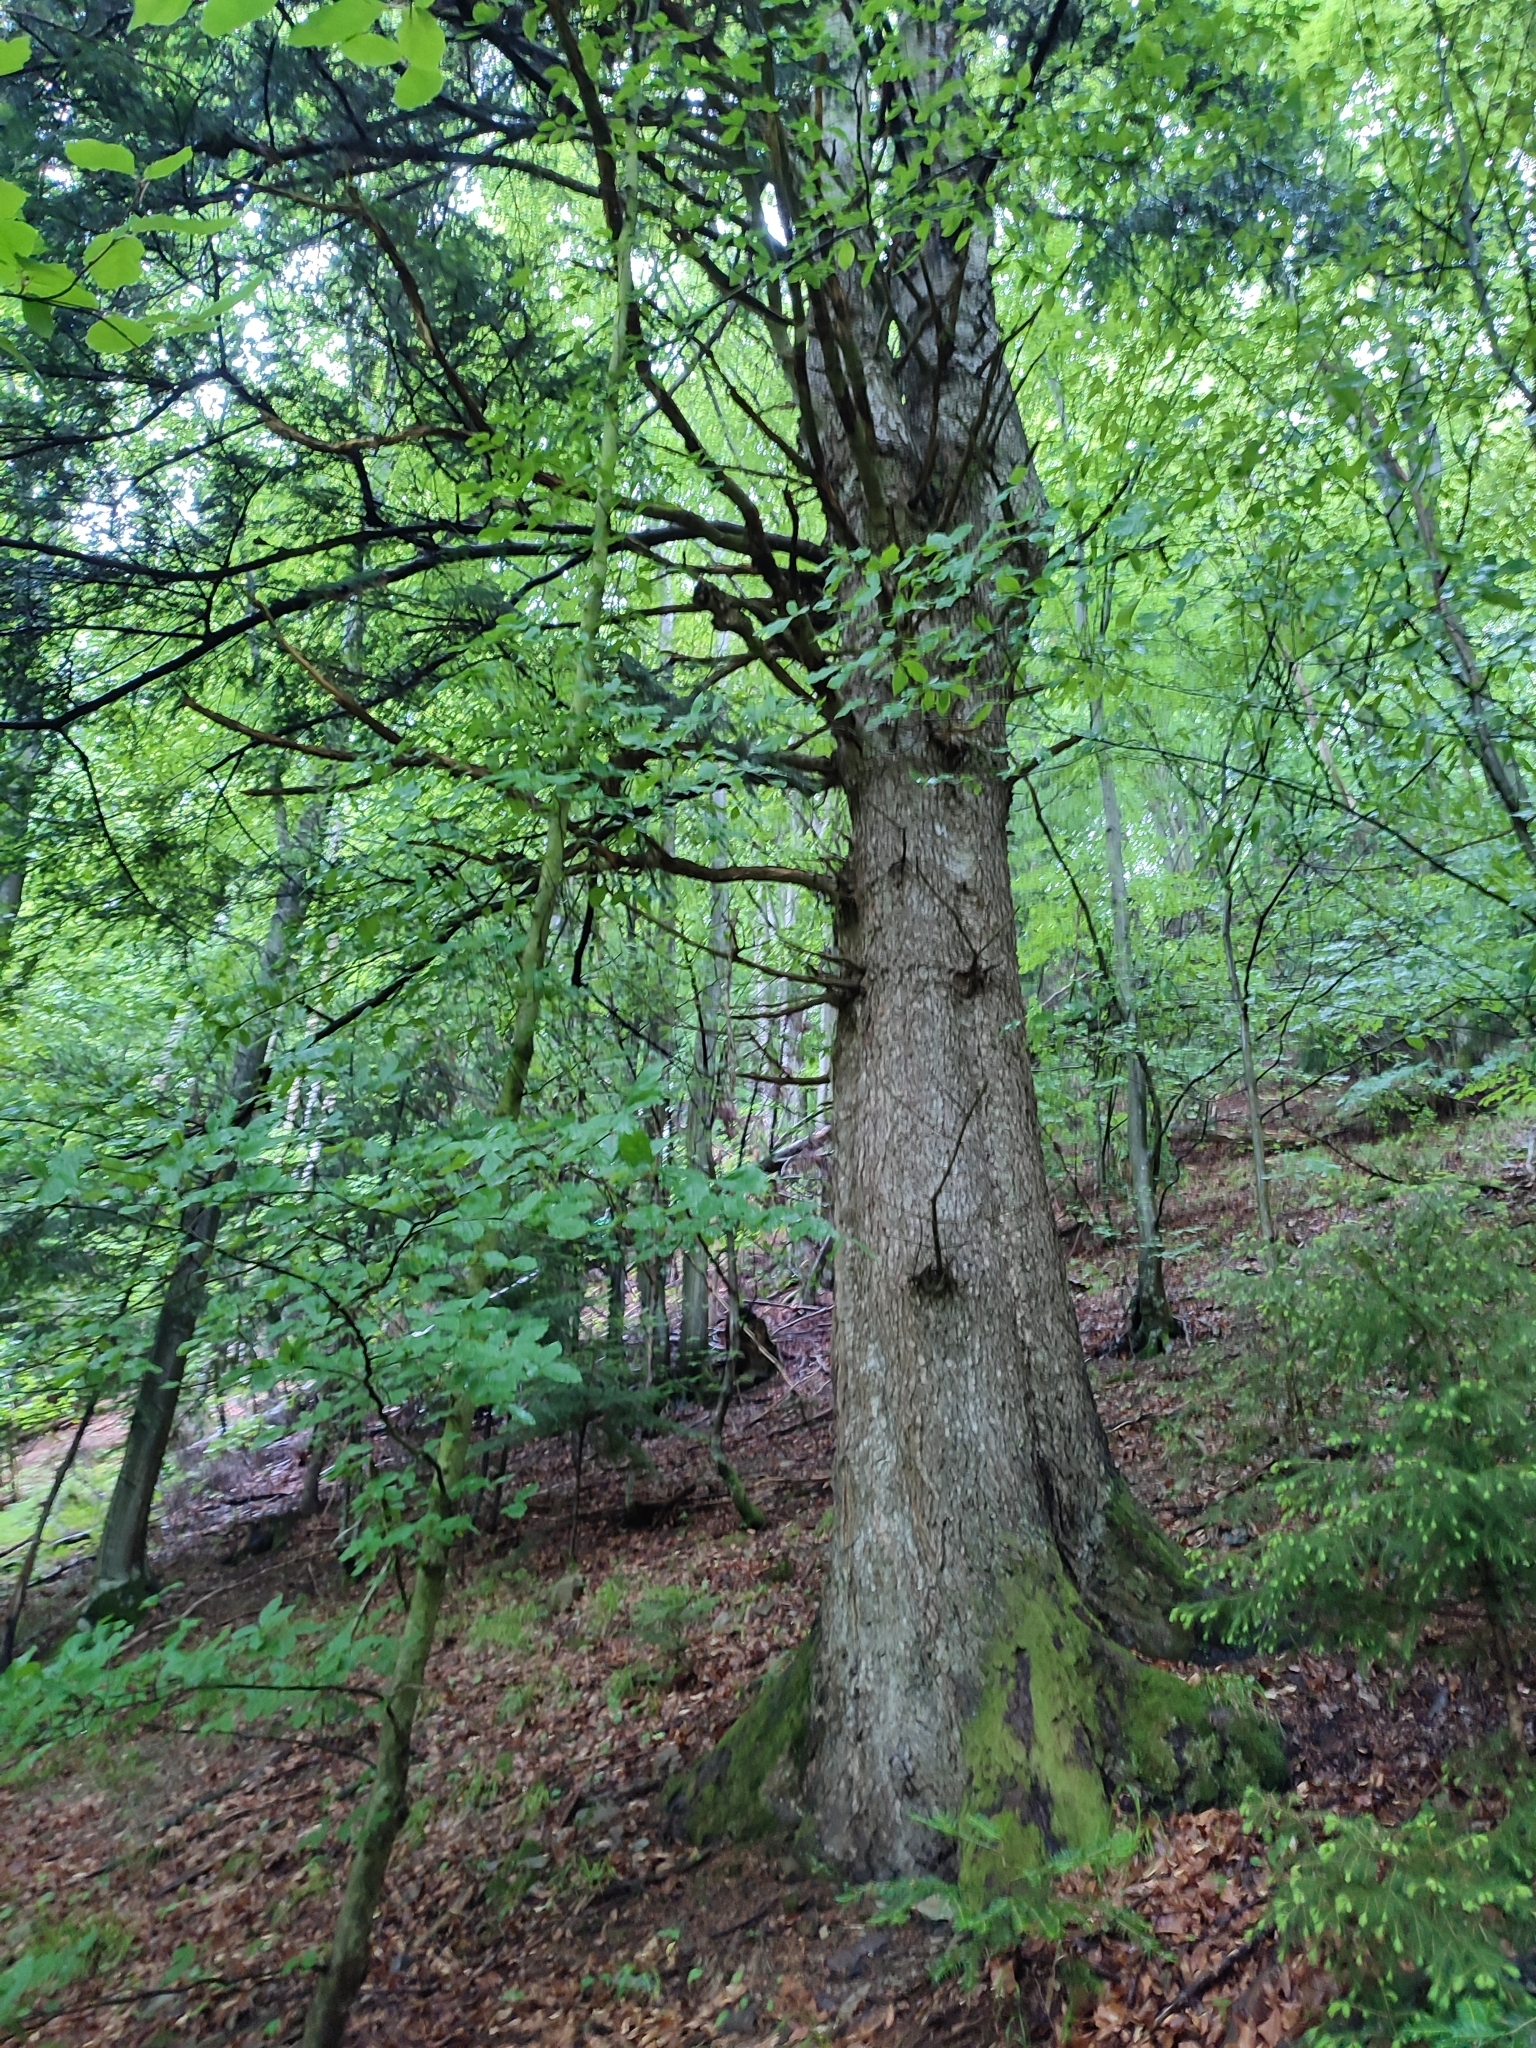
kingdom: Plantae
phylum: Tracheophyta
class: Magnoliopsida
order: Fagales
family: Fagaceae
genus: Fagus
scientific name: Fagus sylvatica
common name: Beech
